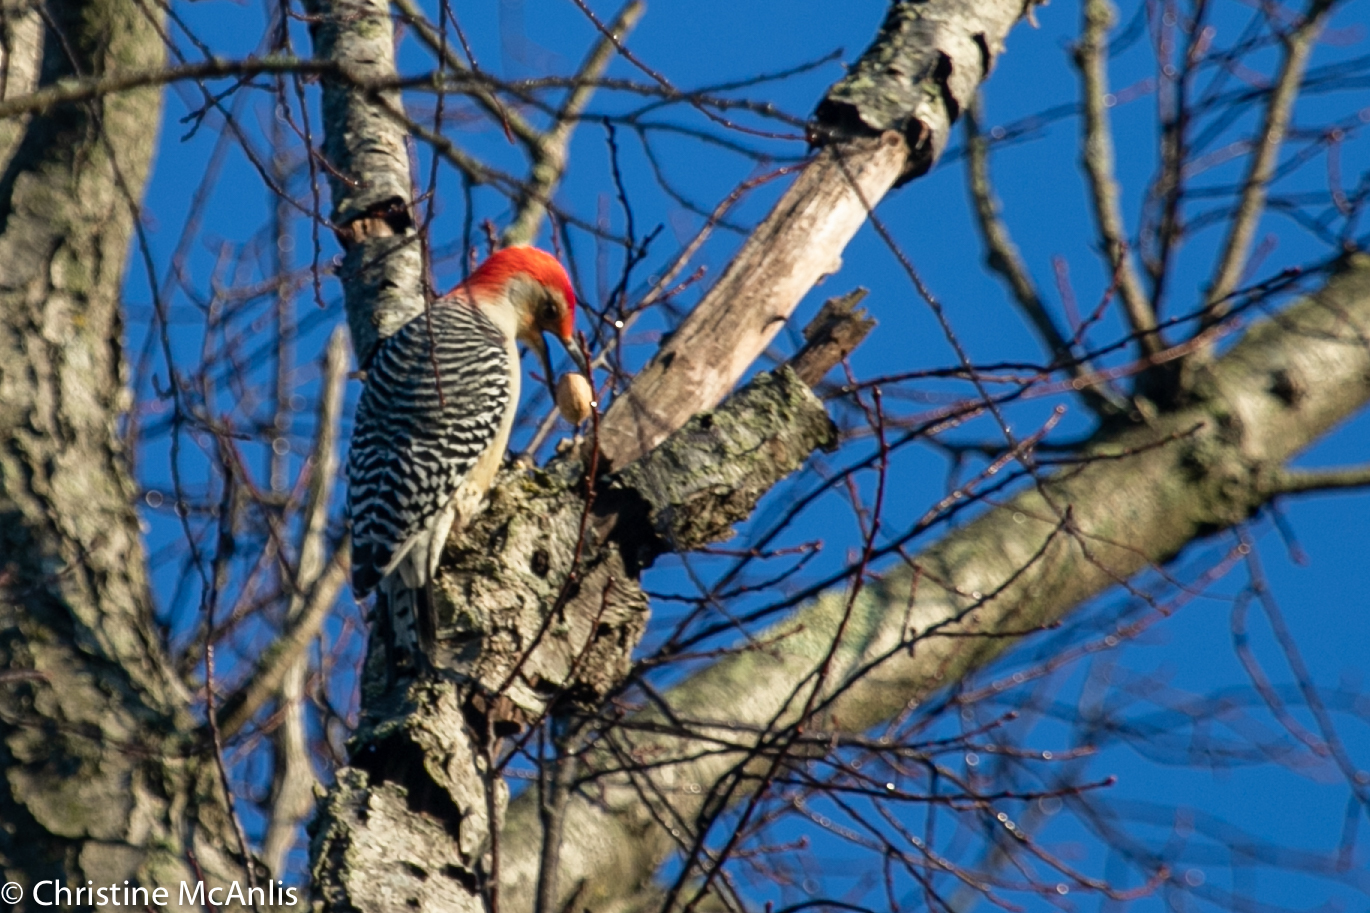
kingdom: Animalia
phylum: Chordata
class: Aves
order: Piciformes
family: Picidae
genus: Melanerpes
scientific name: Melanerpes carolinus
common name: Red-bellied woodpecker
